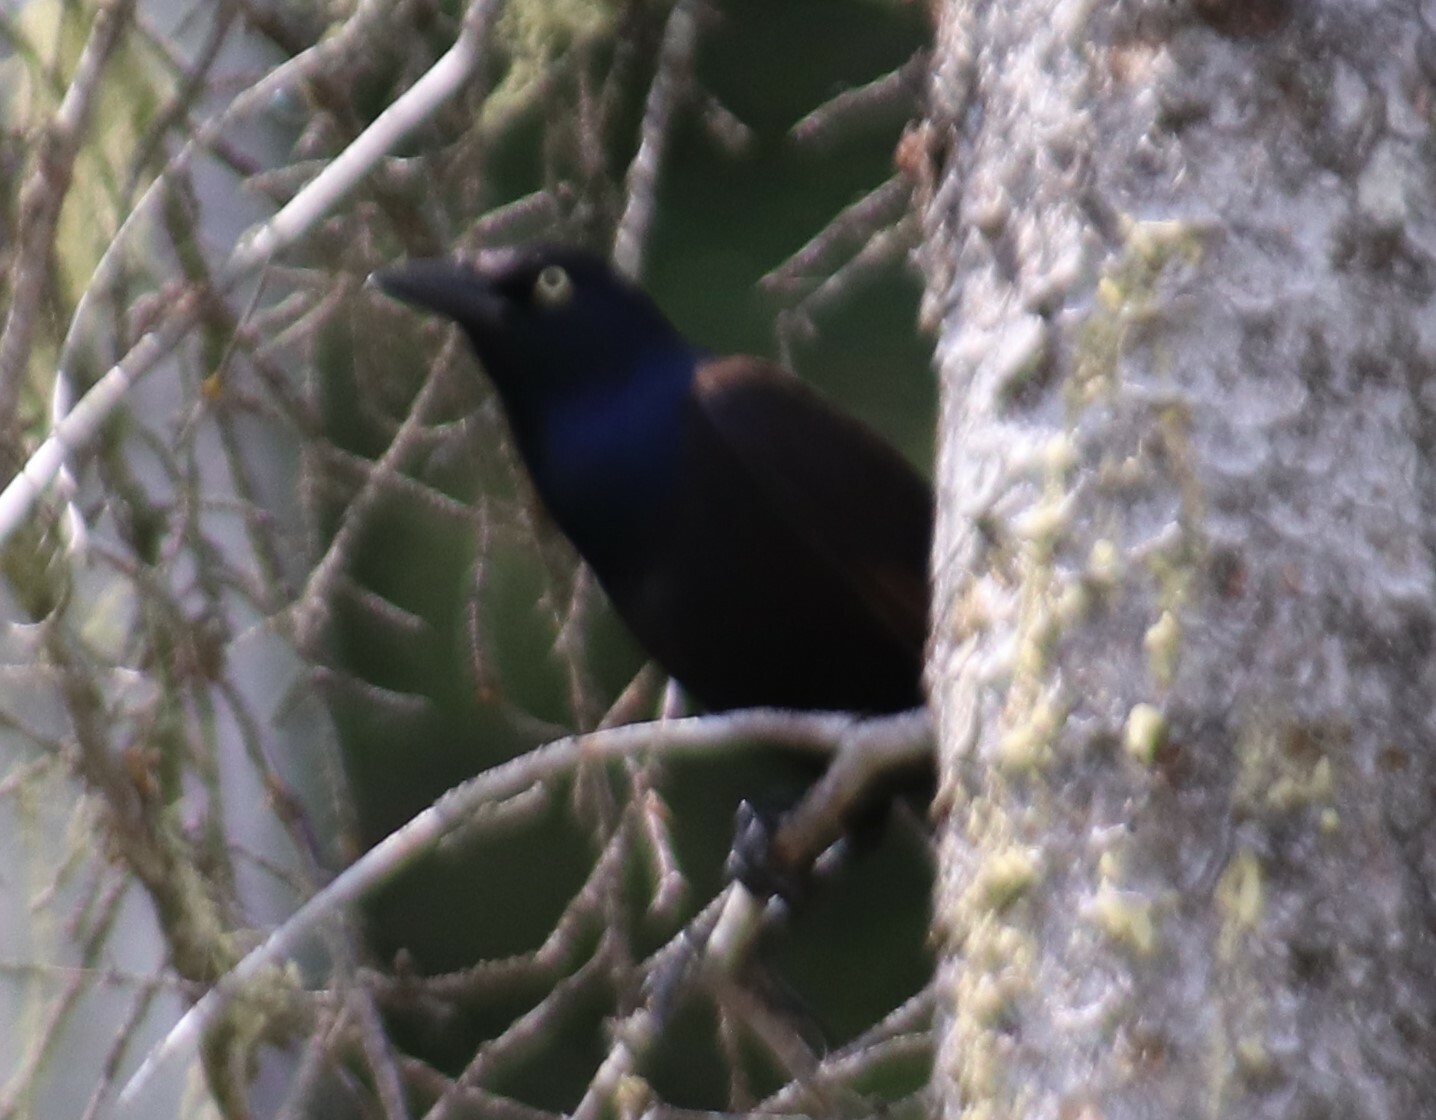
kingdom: Animalia
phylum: Chordata
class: Aves
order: Passeriformes
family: Icteridae
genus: Quiscalus
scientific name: Quiscalus quiscula
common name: Common grackle
